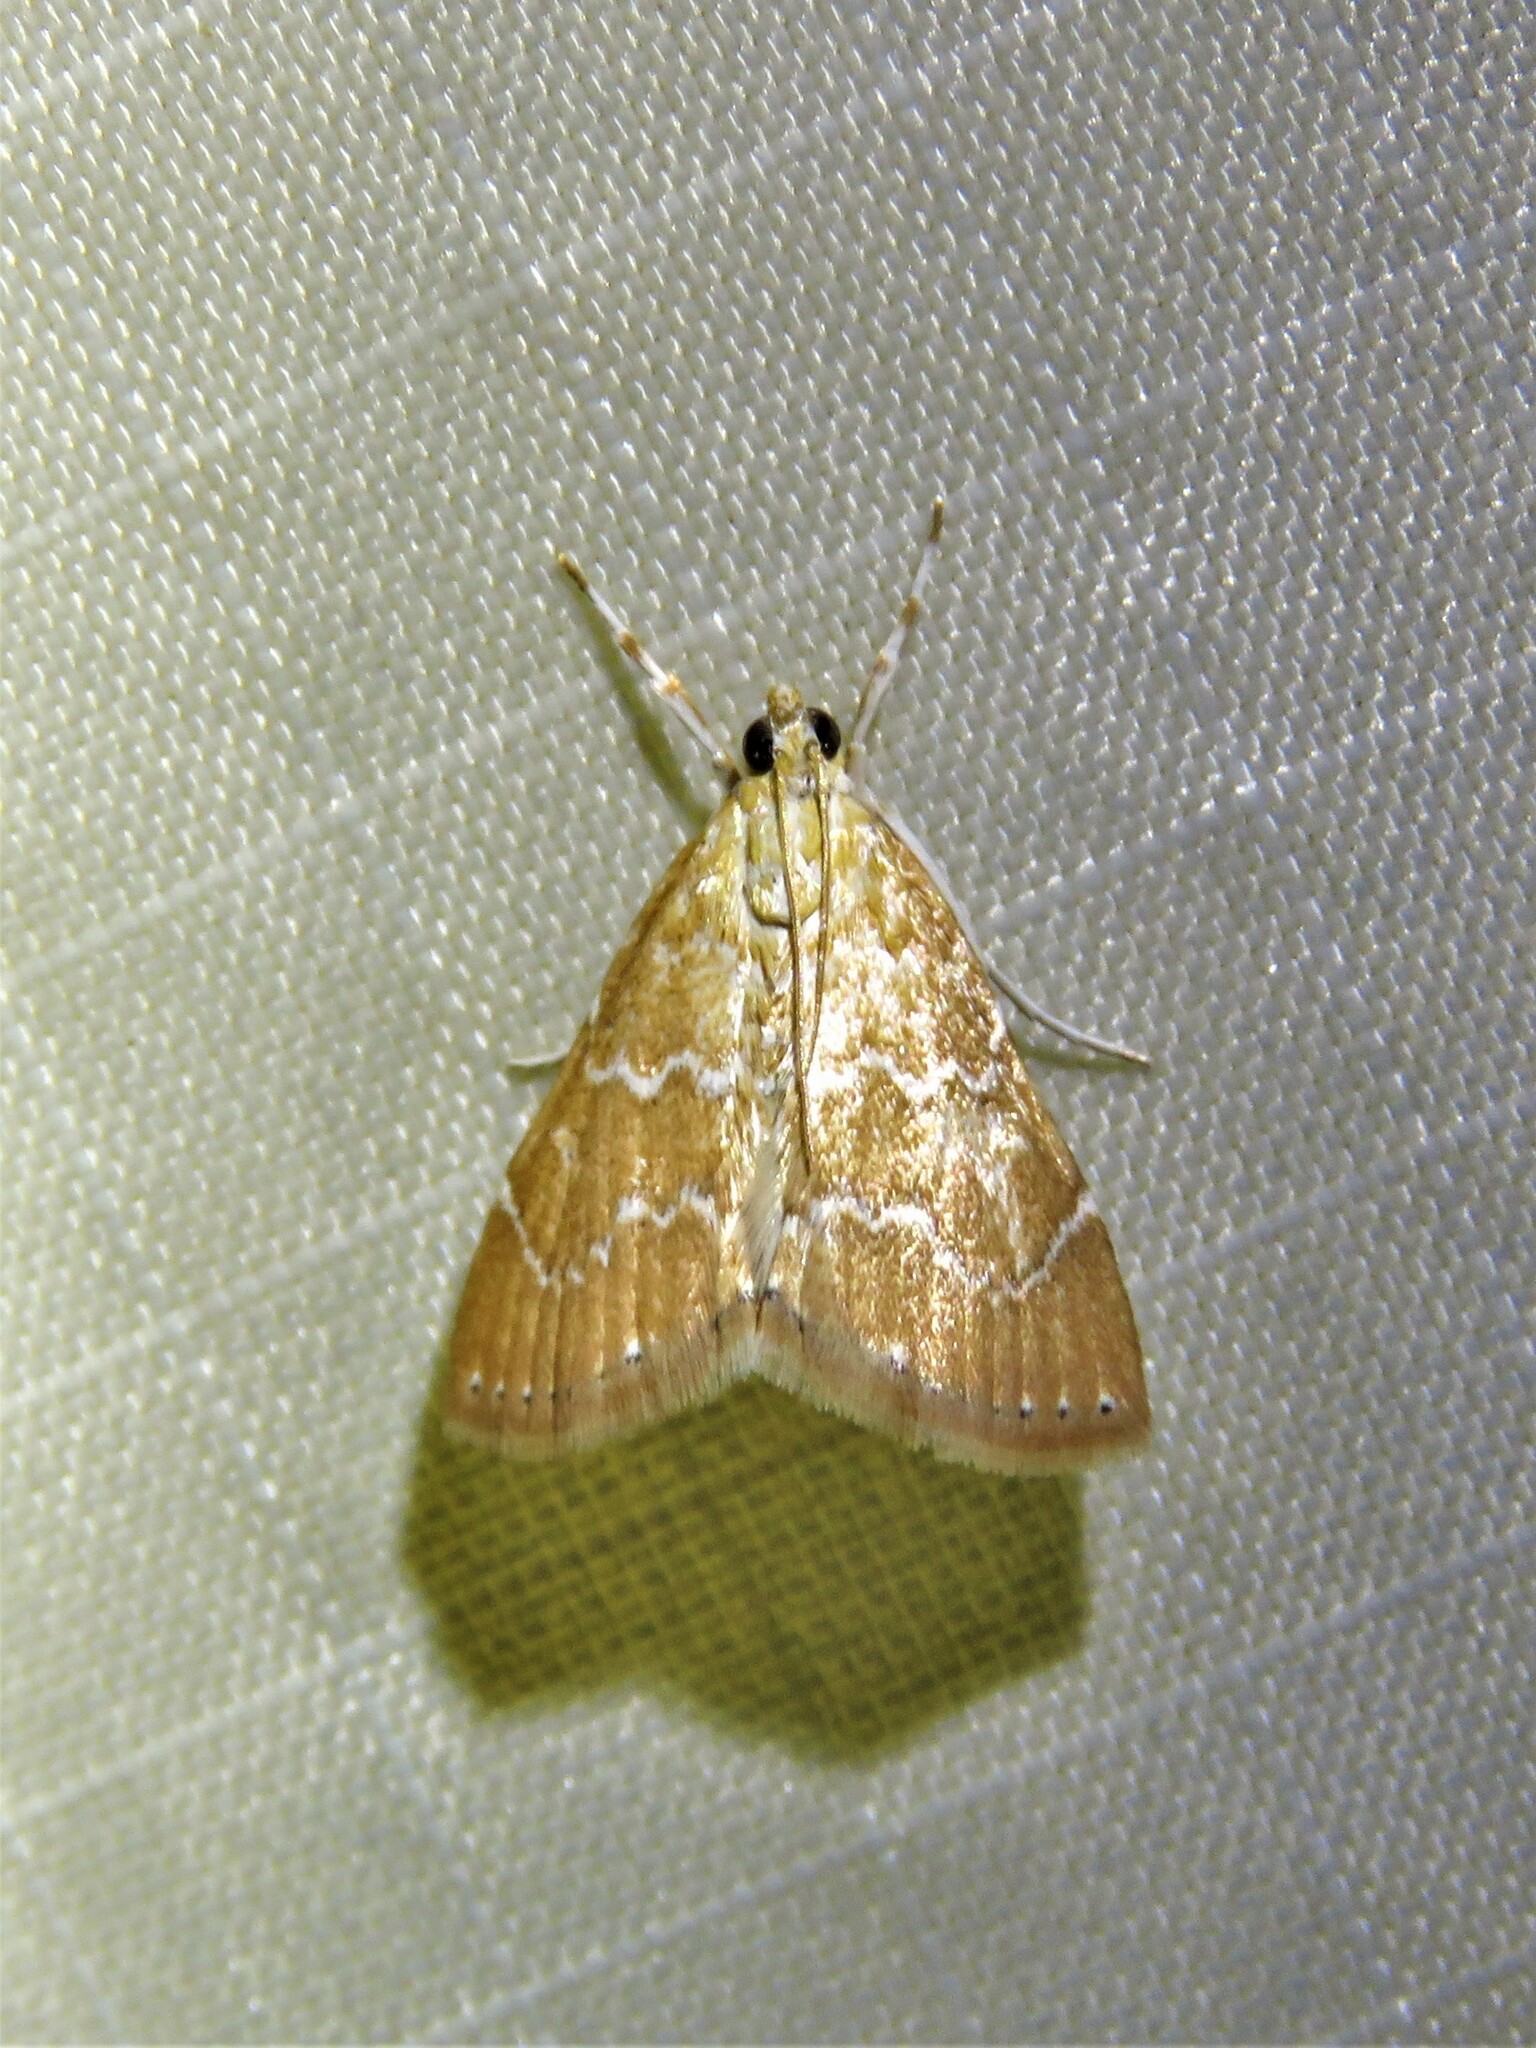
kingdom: Animalia
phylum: Arthropoda
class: Insecta
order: Lepidoptera
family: Crambidae
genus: Glaphyria
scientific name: Glaphyria sesquistrialis
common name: White-roped glaphyria
